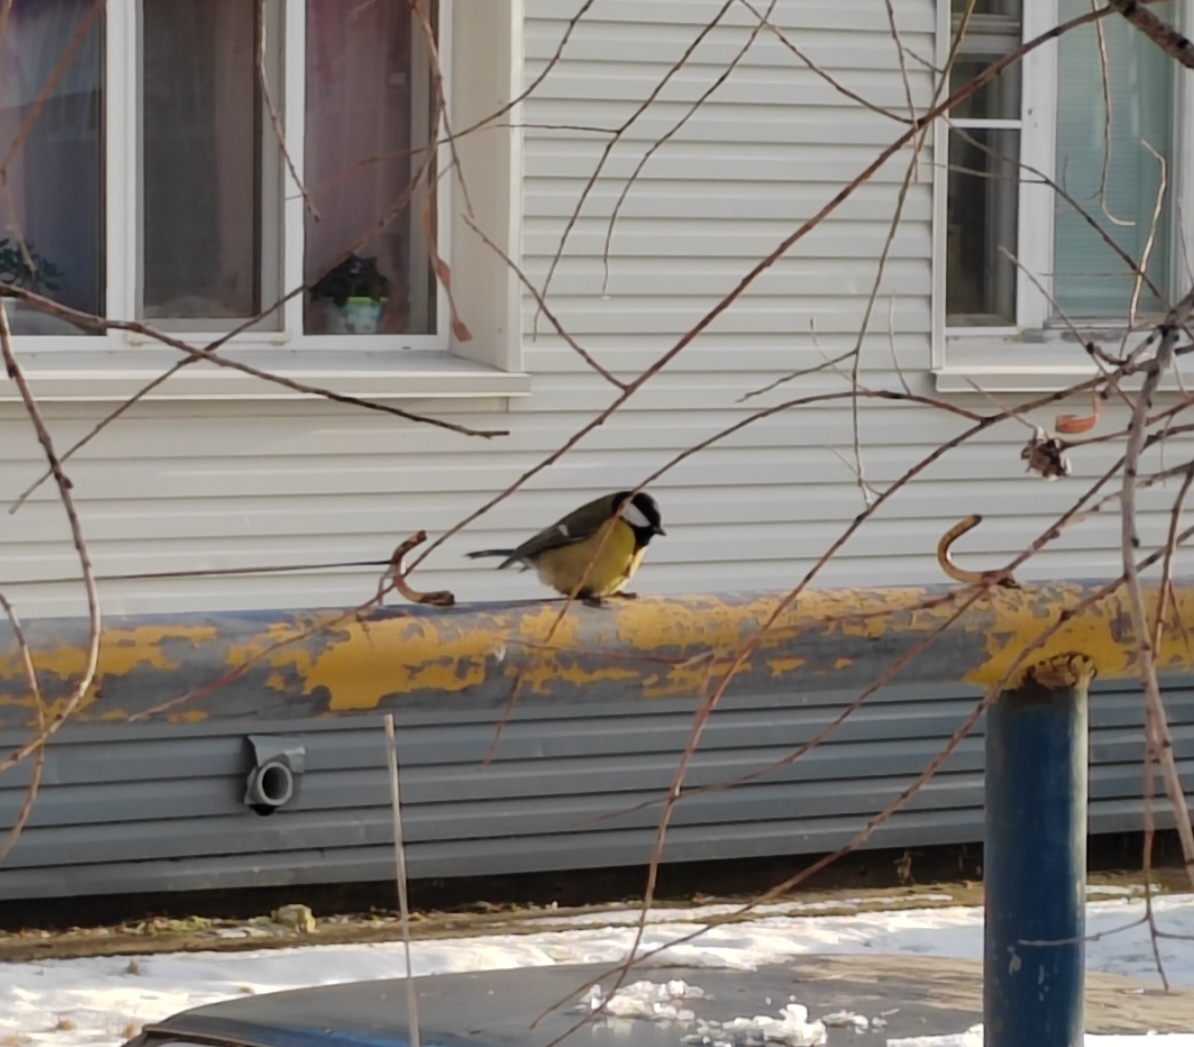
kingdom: Animalia
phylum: Chordata
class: Aves
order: Passeriformes
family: Paridae
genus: Parus
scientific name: Parus major
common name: Great tit
